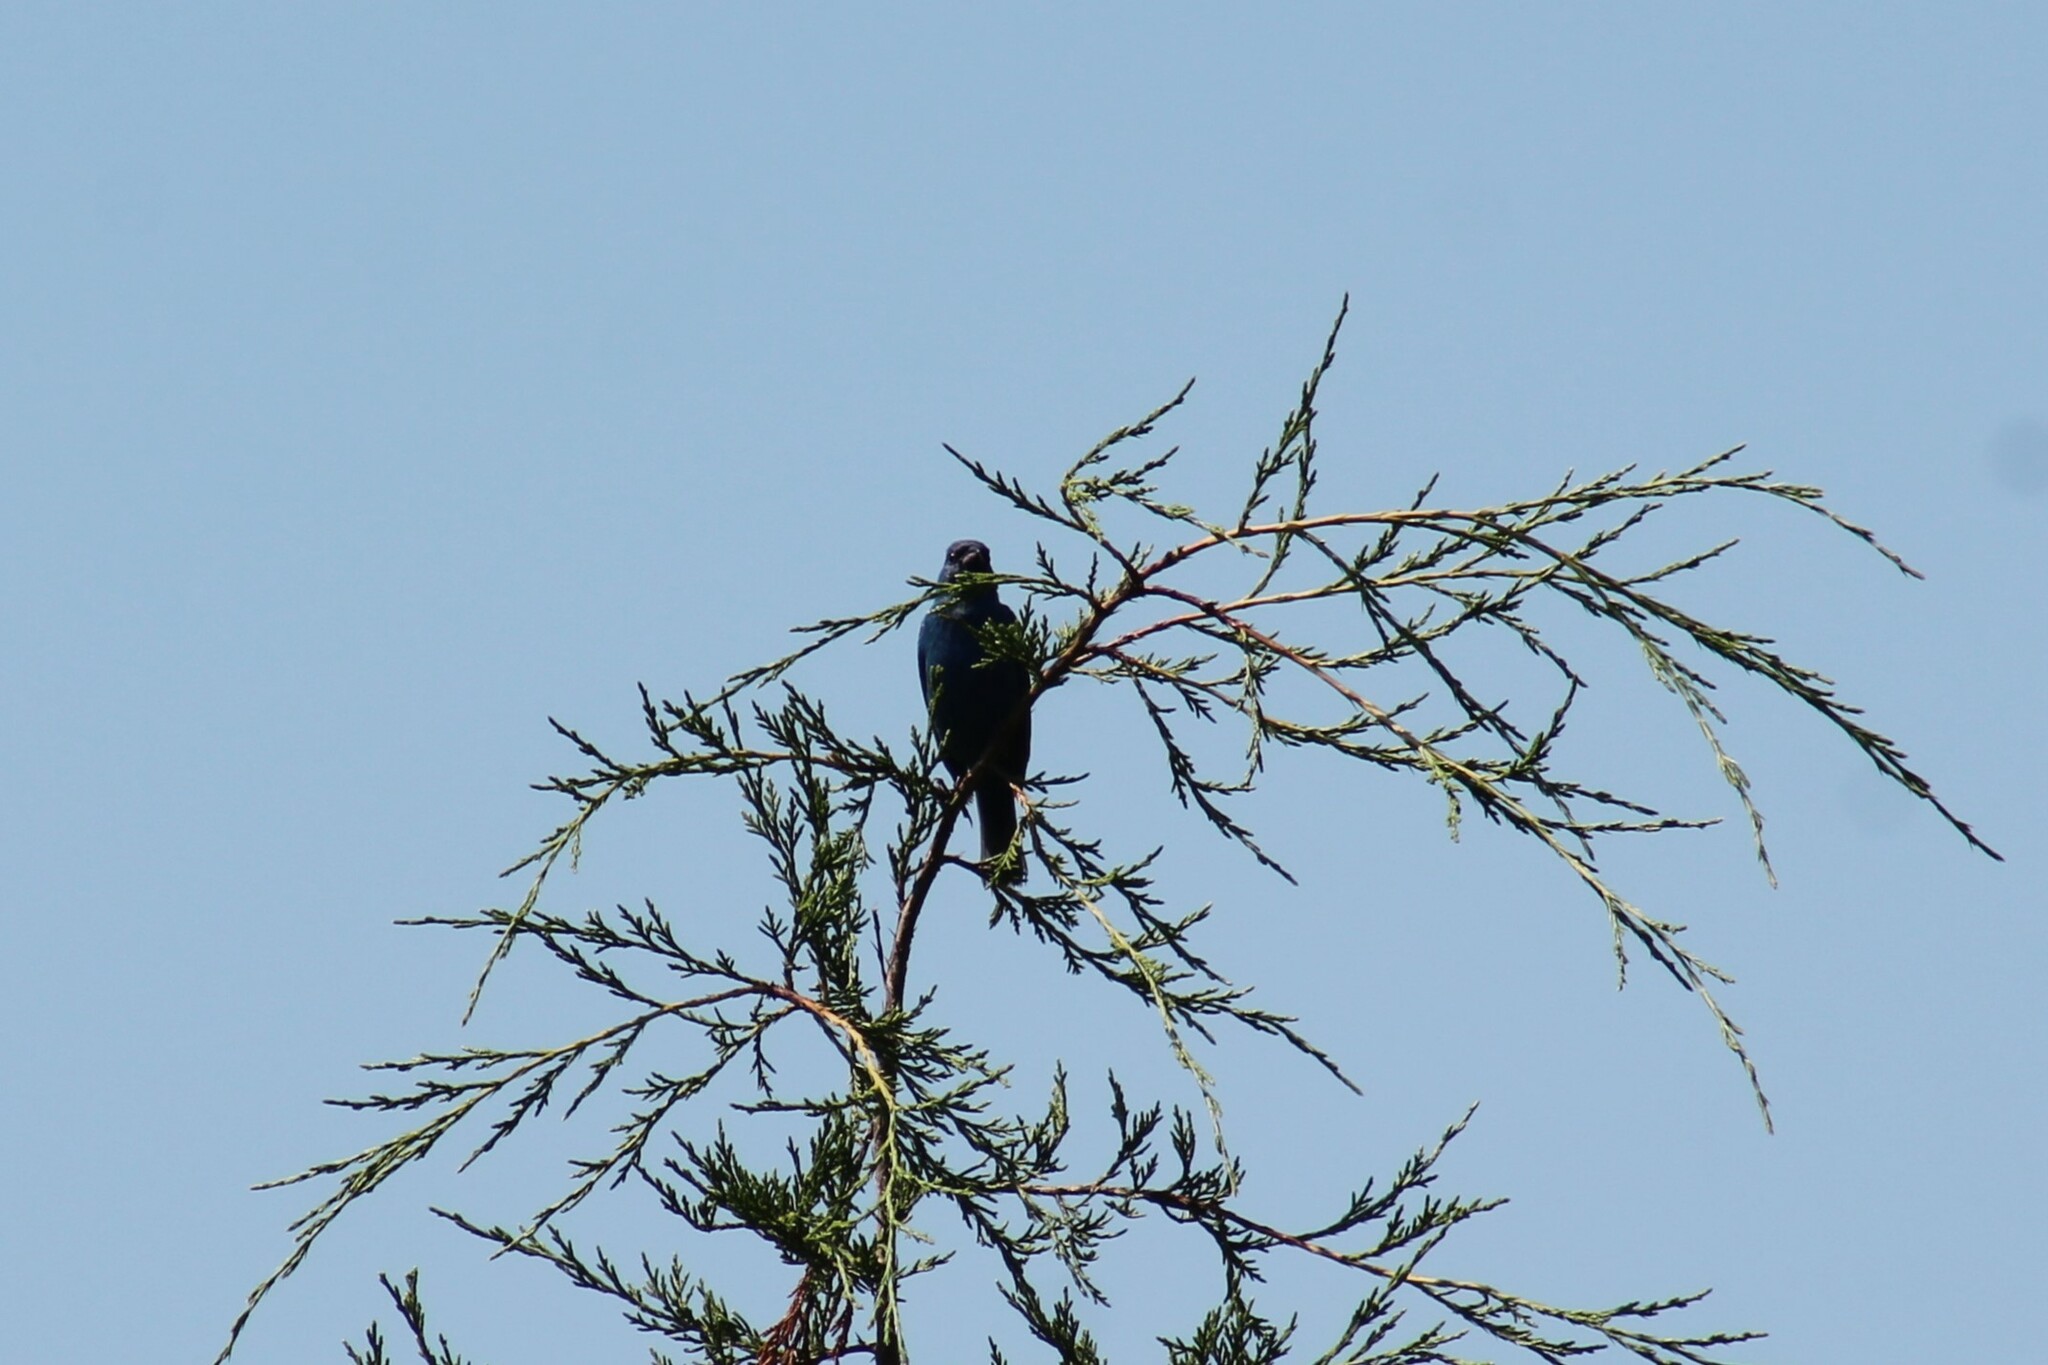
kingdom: Animalia
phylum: Chordata
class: Aves
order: Passeriformes
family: Cardinalidae
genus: Passerina
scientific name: Passerina cyanea
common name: Indigo bunting
